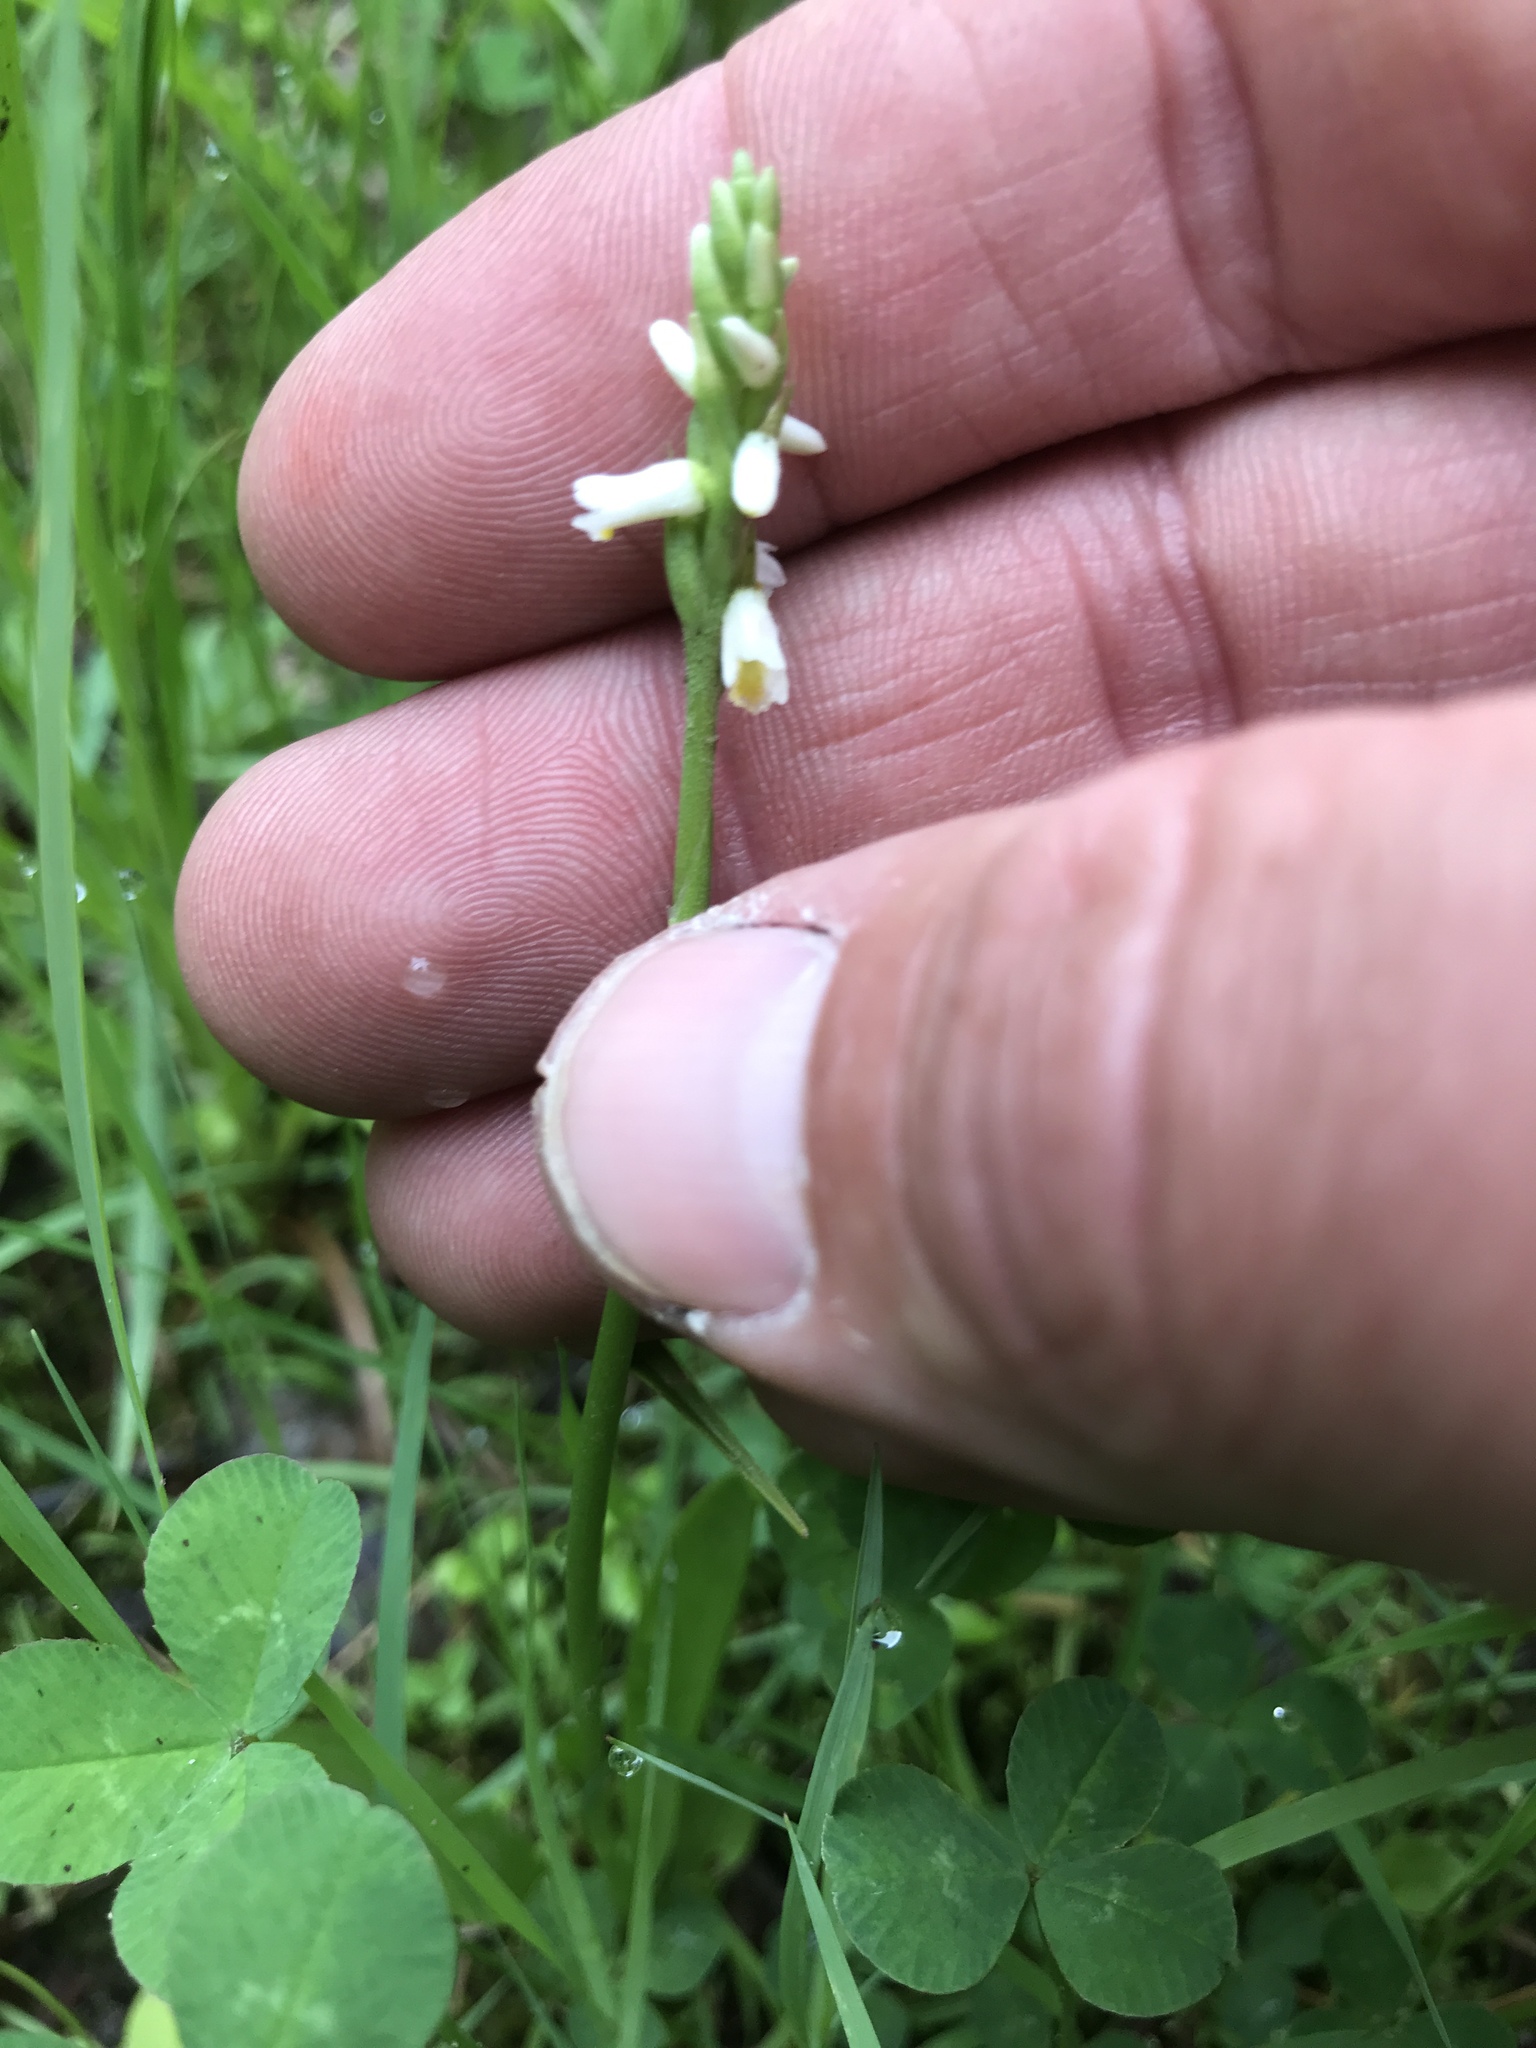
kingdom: Plantae
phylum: Tracheophyta
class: Liliopsida
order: Asparagales
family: Orchidaceae
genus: Spiranthes
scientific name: Spiranthes lucida
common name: Broad-leaved ladies'-tresses
